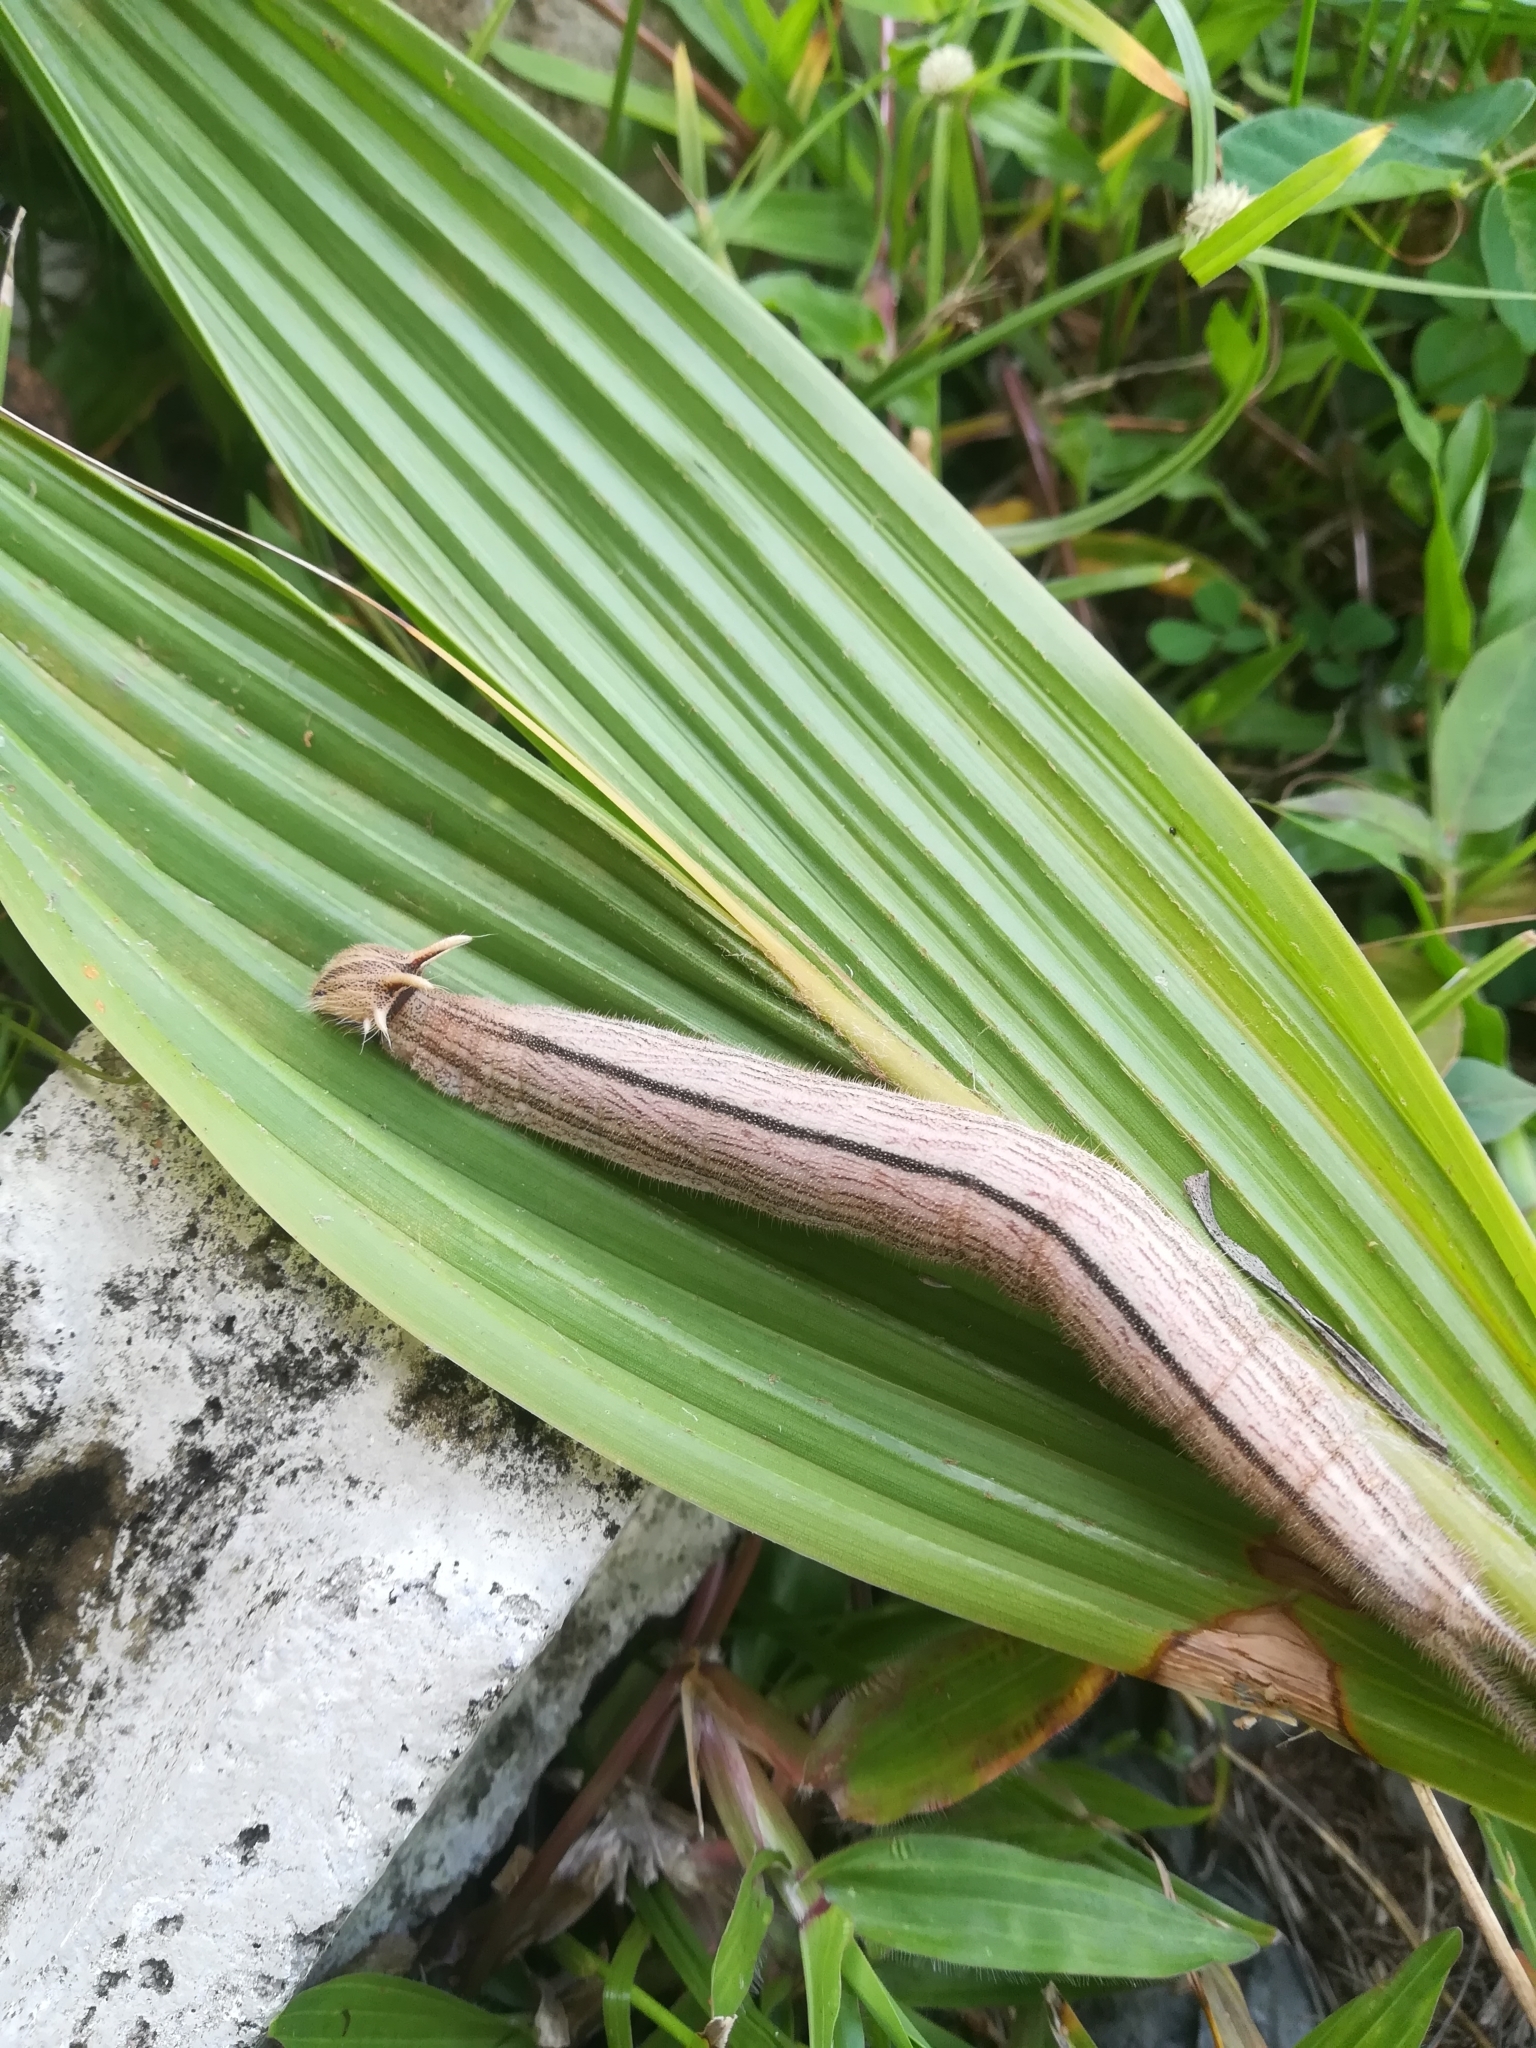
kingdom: Animalia
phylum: Arthropoda
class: Insecta
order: Lepidoptera
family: Nymphalidae
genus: Catoblepia
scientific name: Catoblepia berecynthia
